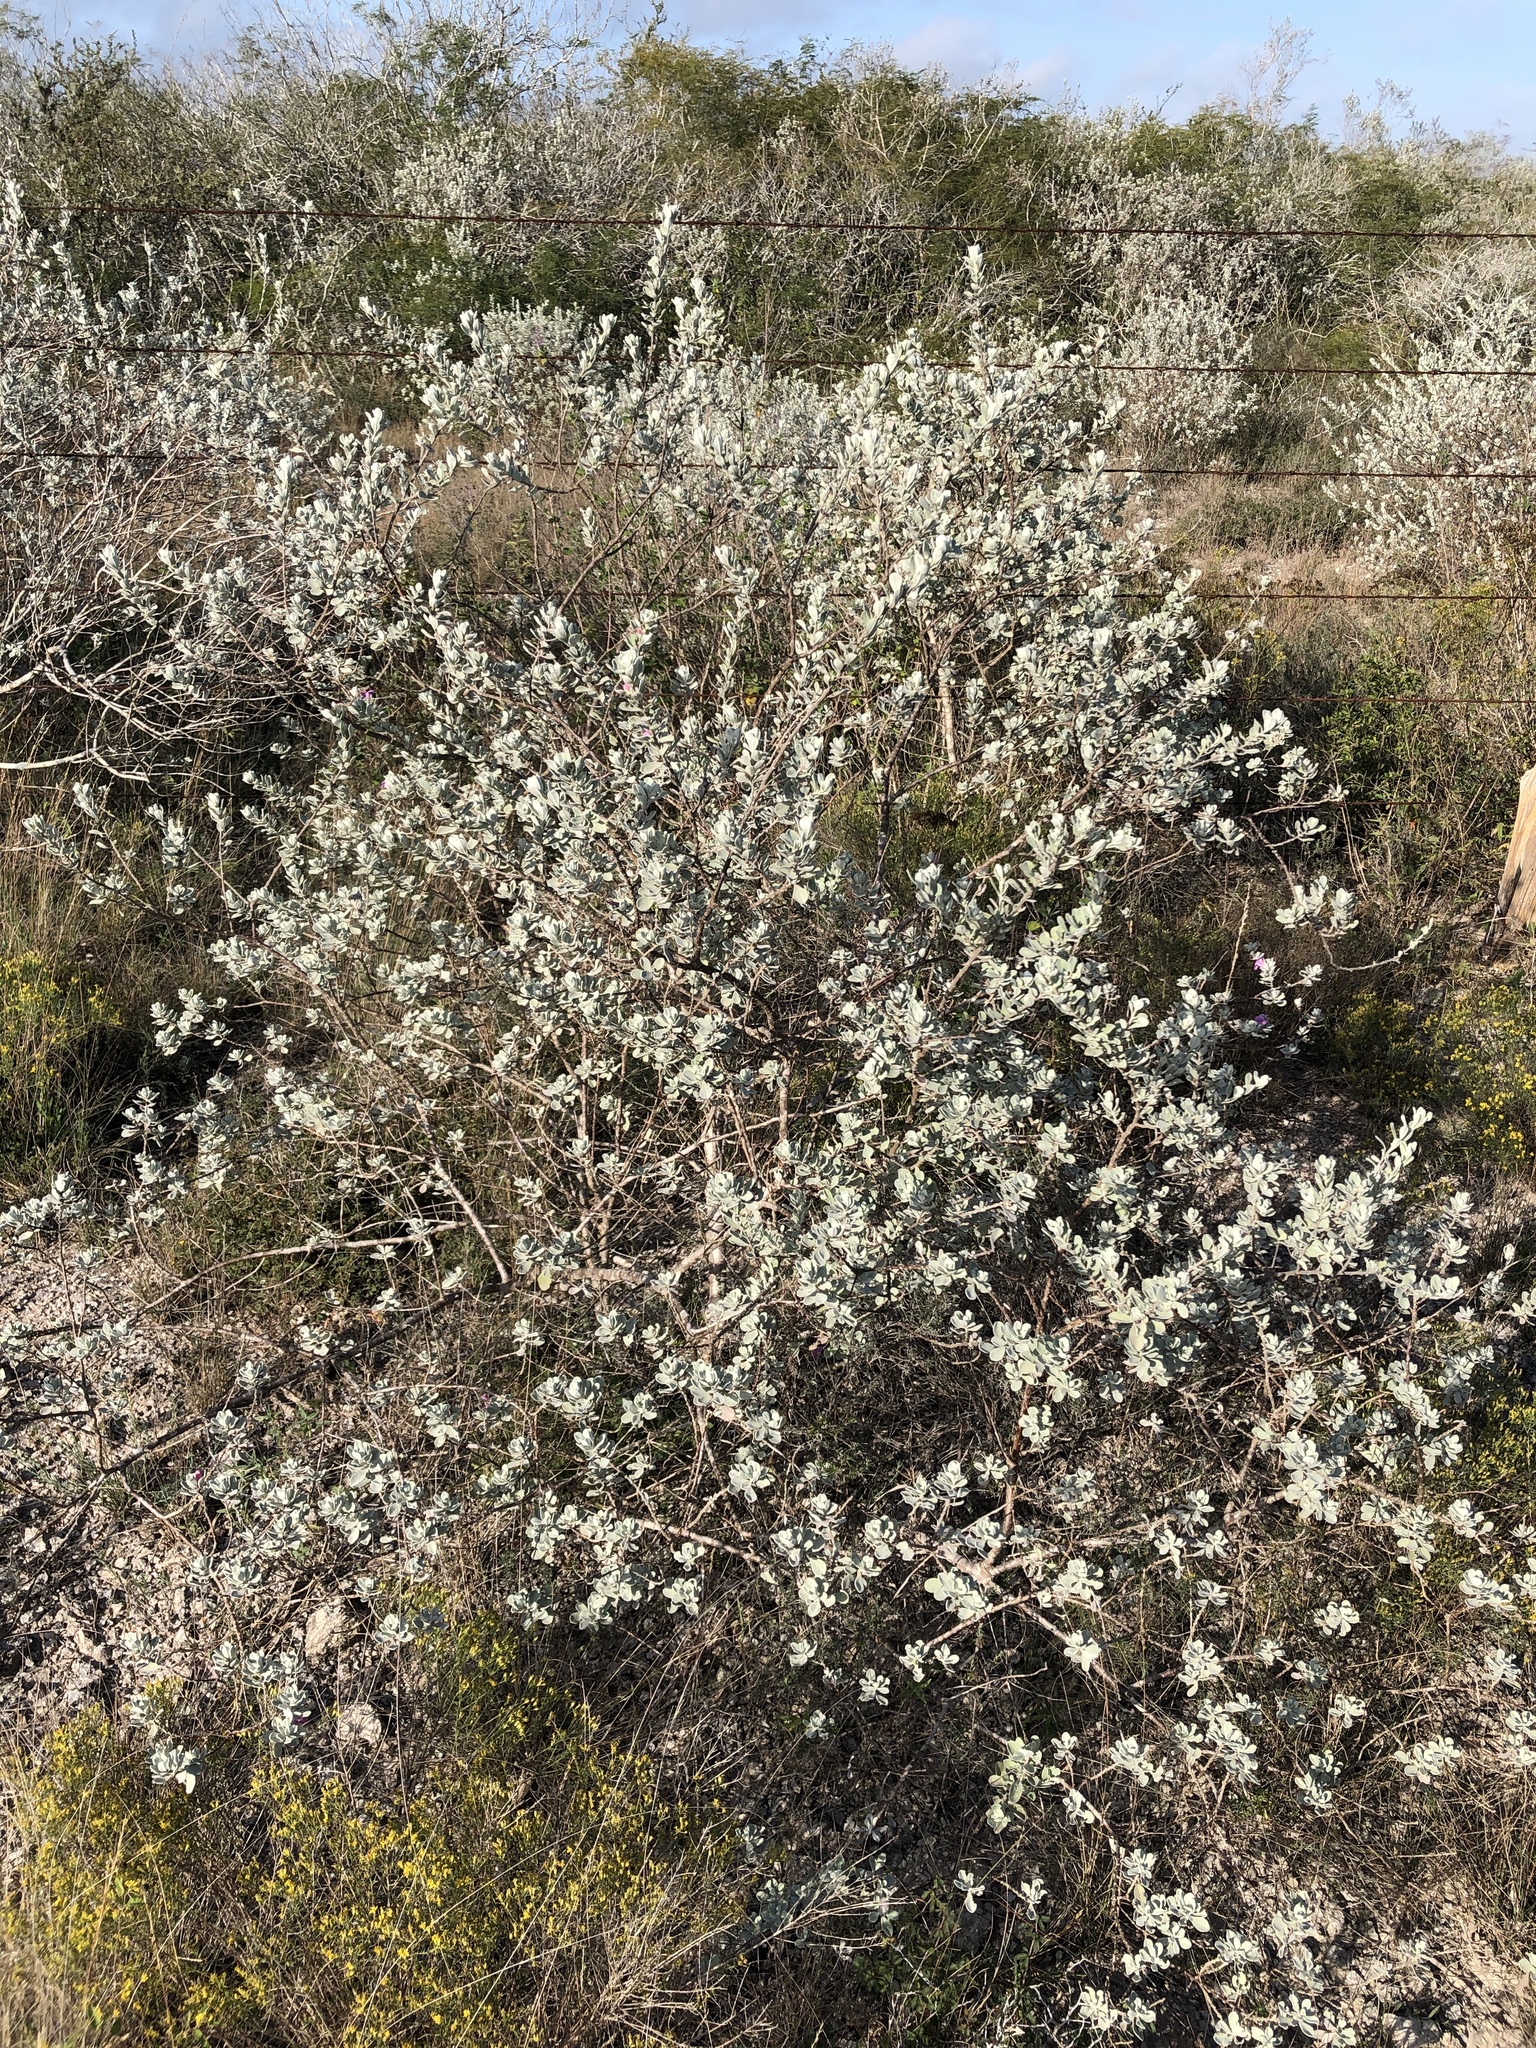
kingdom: Plantae
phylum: Tracheophyta
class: Magnoliopsida
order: Lamiales
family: Scrophulariaceae
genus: Leucophyllum
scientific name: Leucophyllum frutescens
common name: Texas silverleaf
